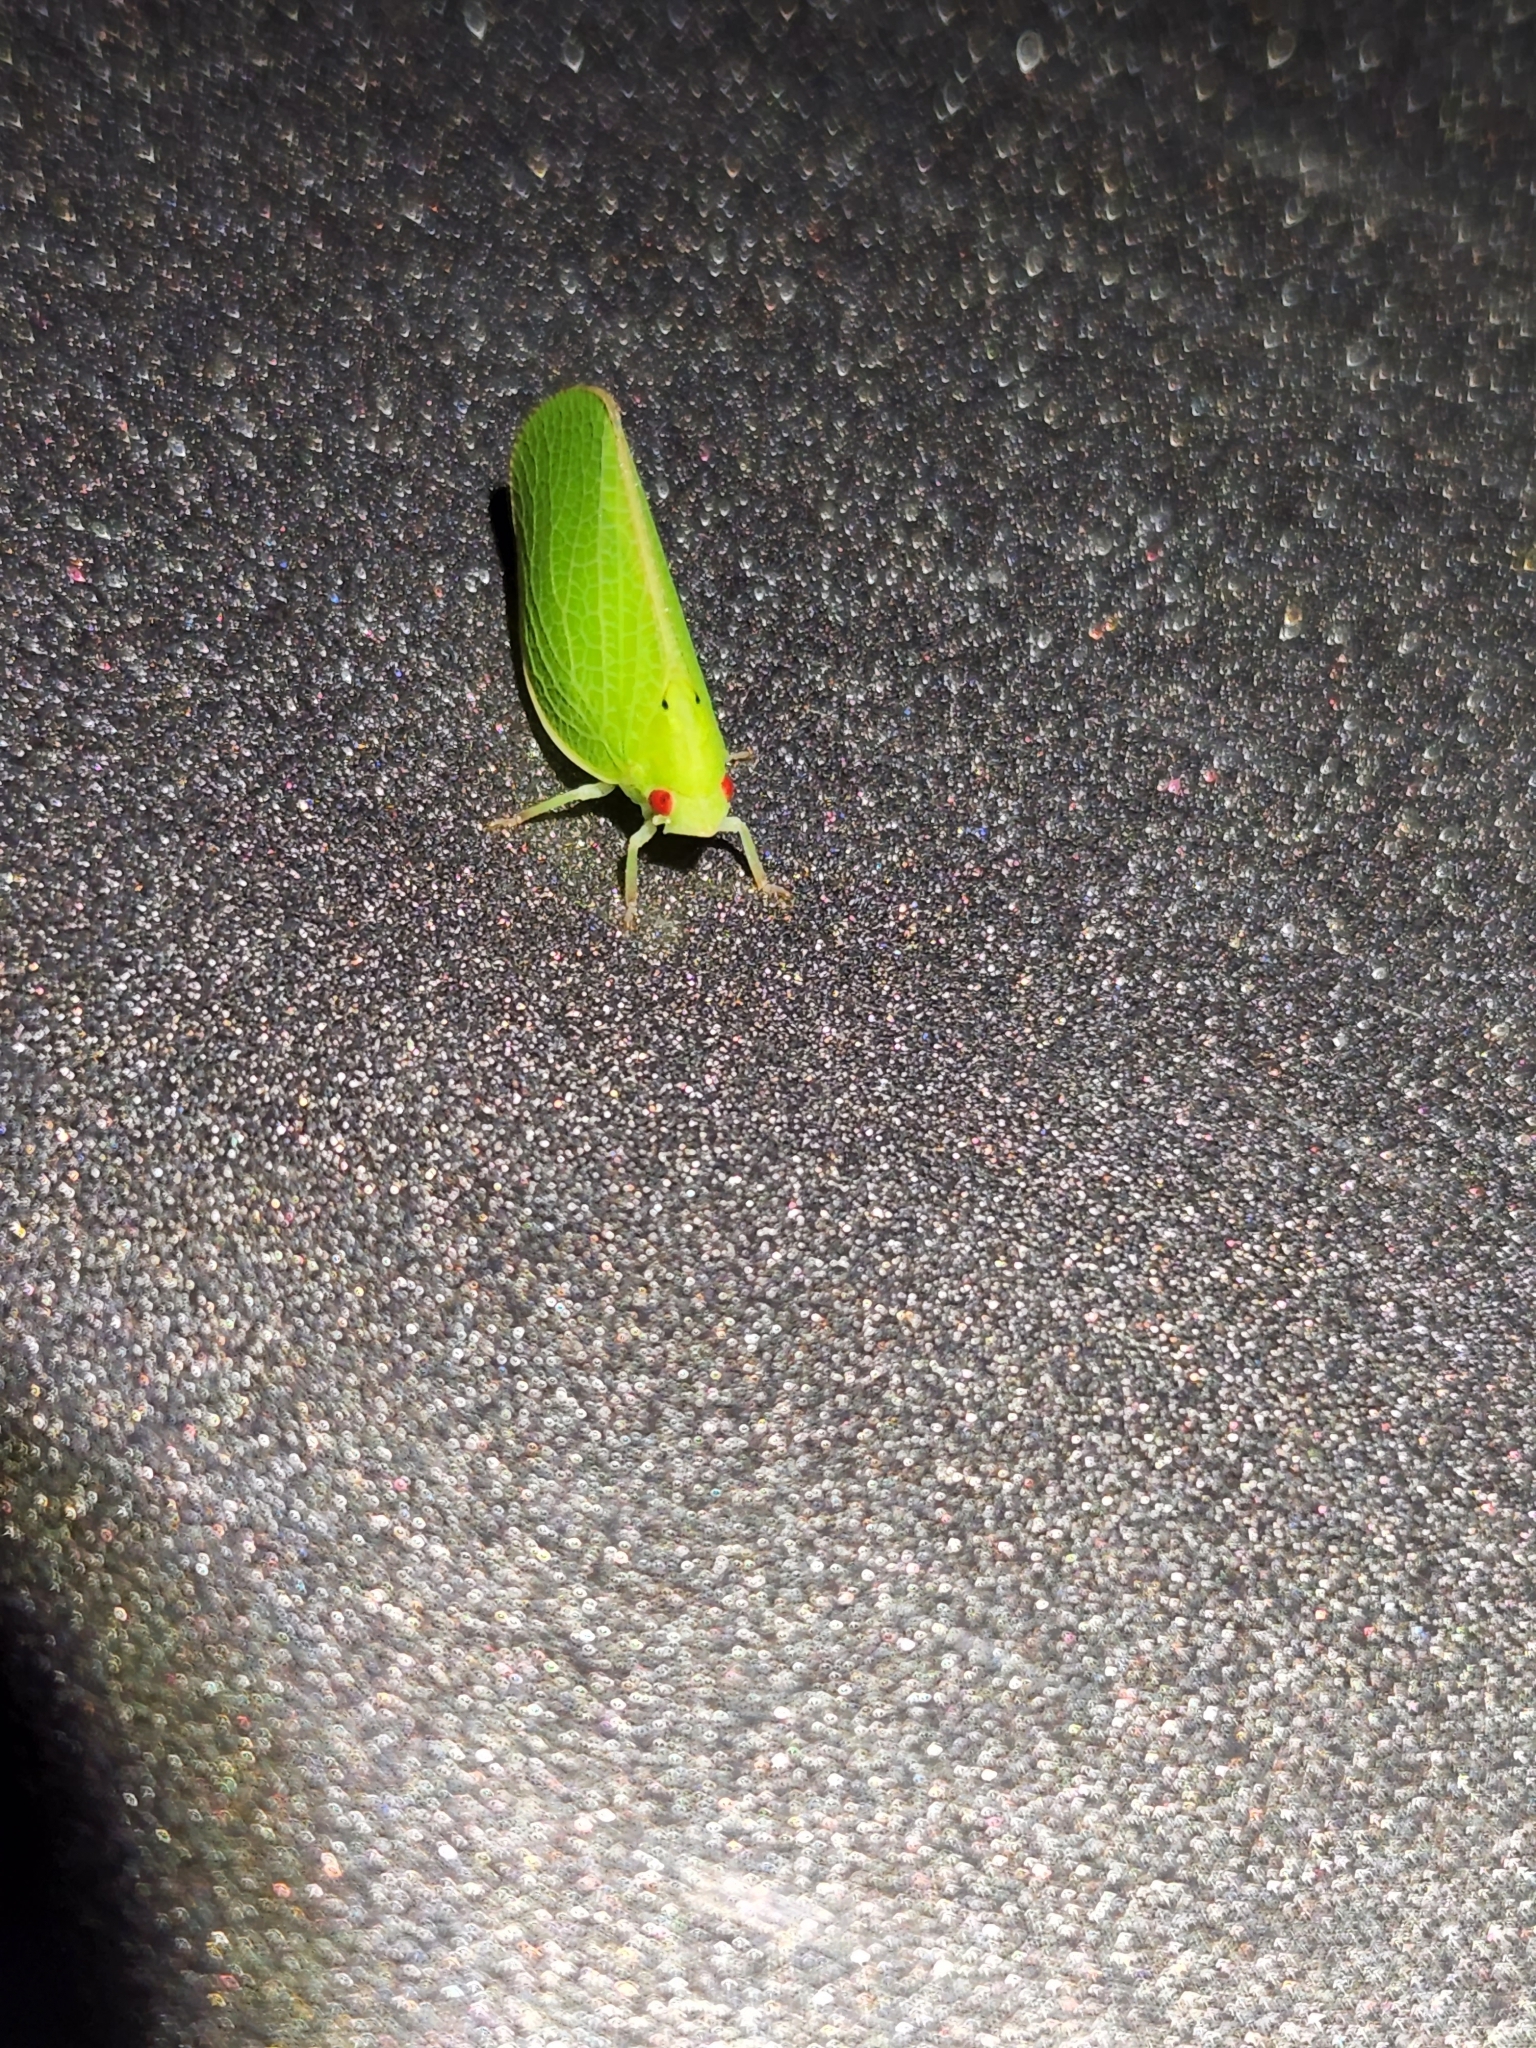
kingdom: Animalia
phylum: Arthropoda
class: Insecta
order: Hemiptera
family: Acanaloniidae
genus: Acanalonia
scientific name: Acanalonia conica
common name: Green cone-headed planthopper
